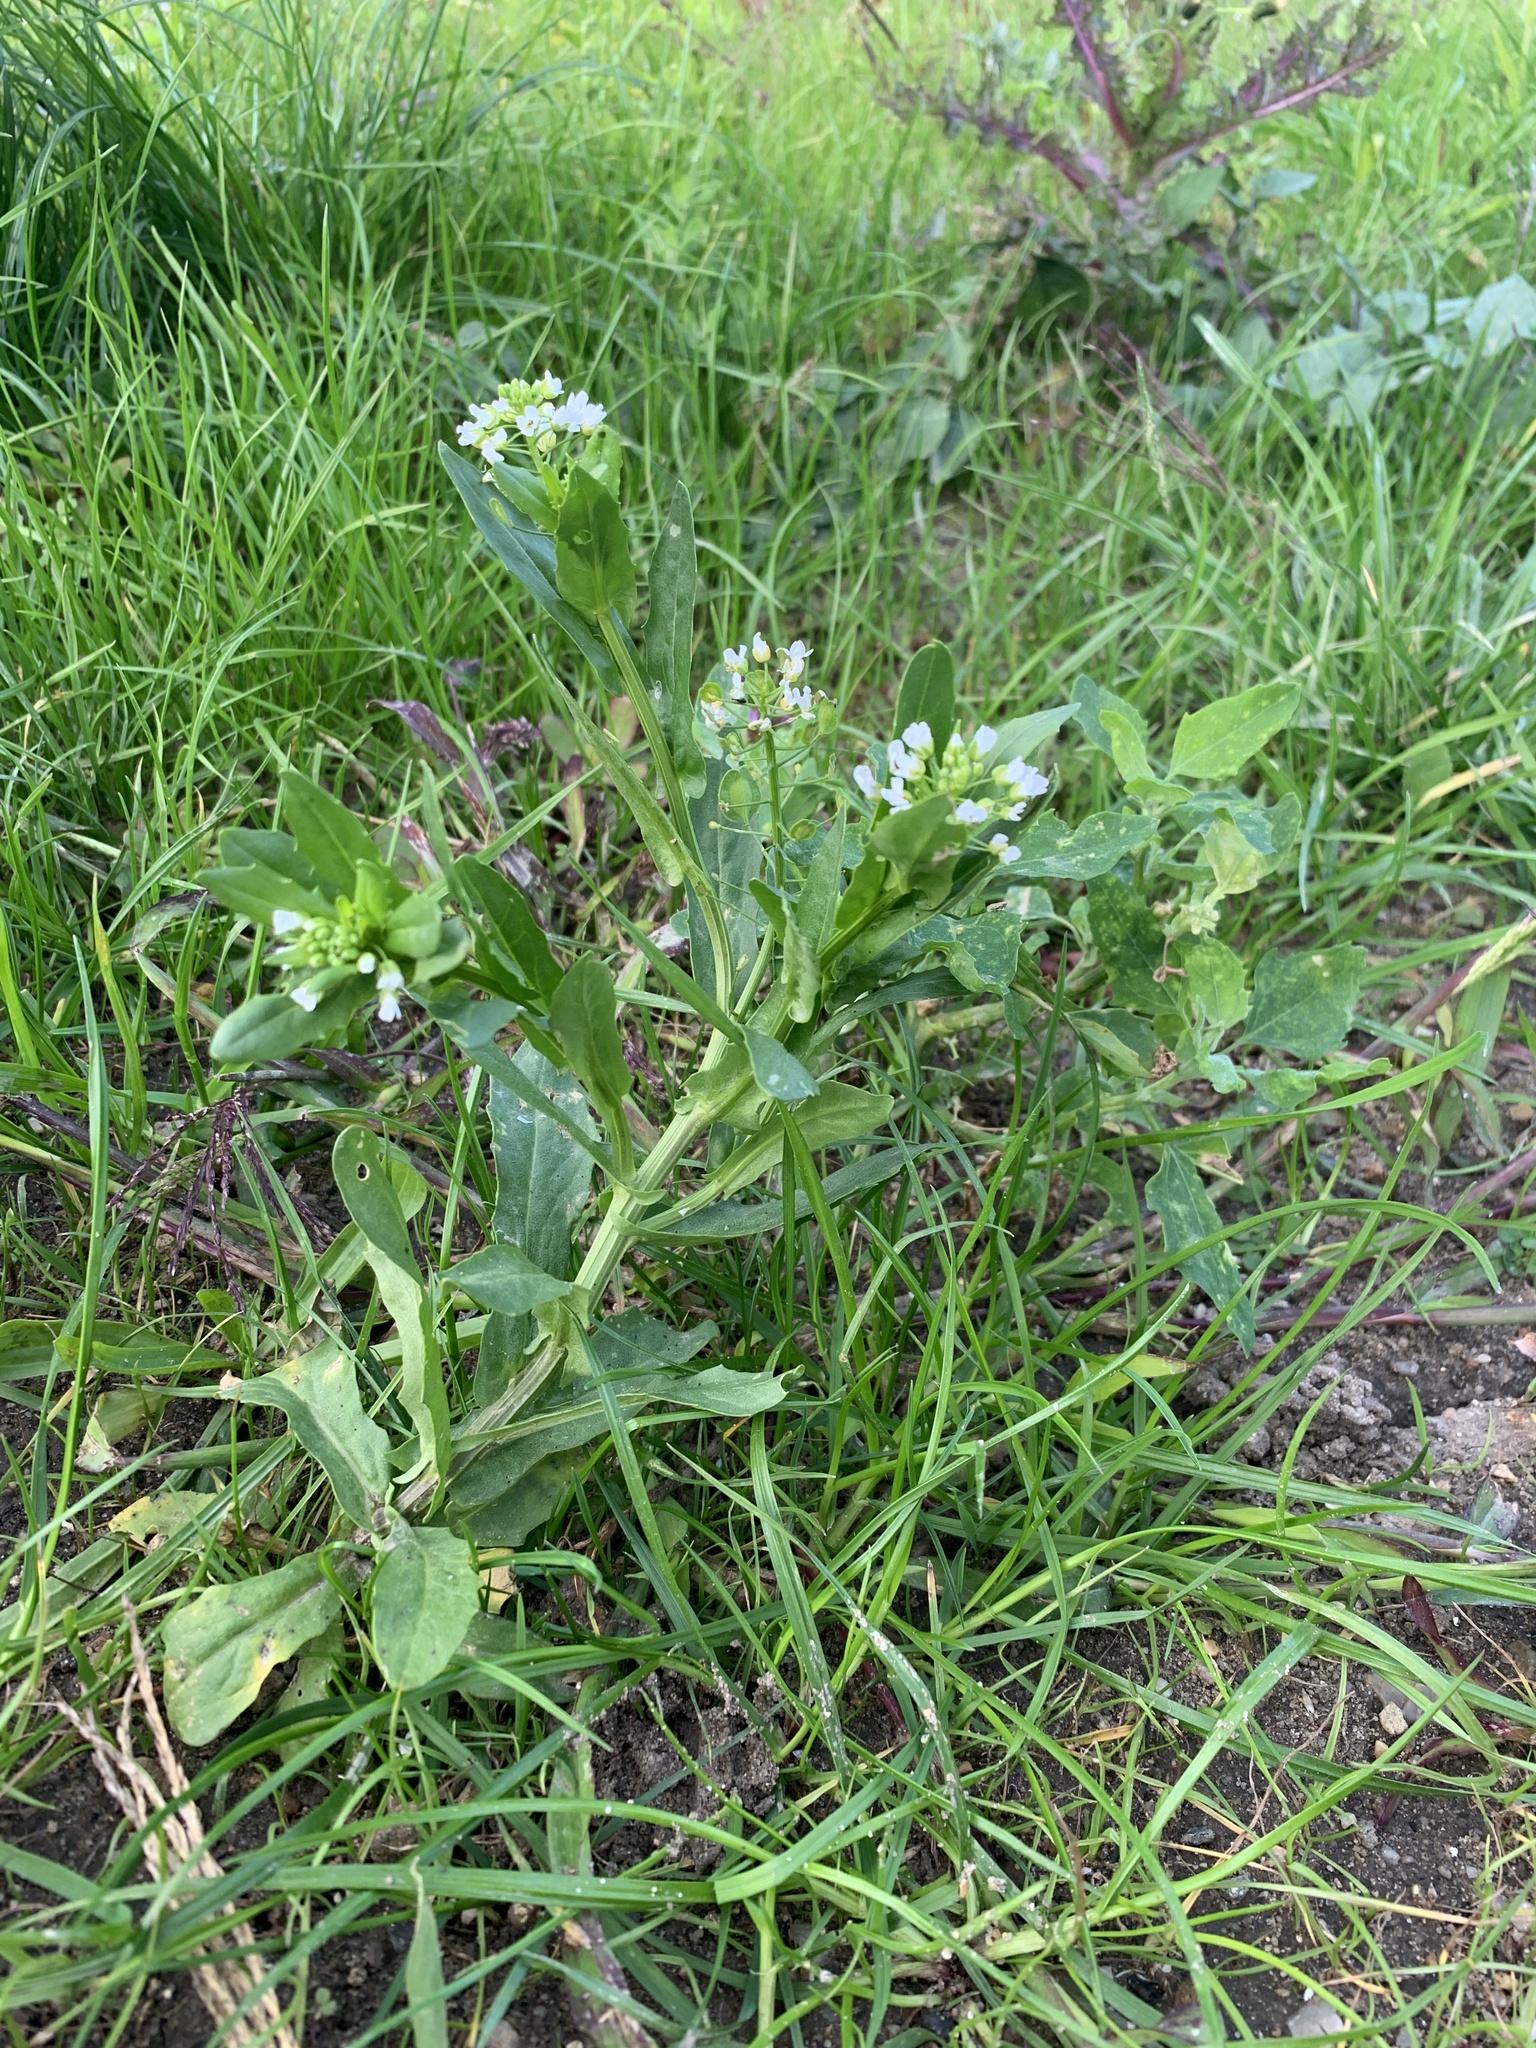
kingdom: Plantae
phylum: Tracheophyta
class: Magnoliopsida
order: Brassicales
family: Brassicaceae
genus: Thlaspi
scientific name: Thlaspi arvense
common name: Field pennycress
